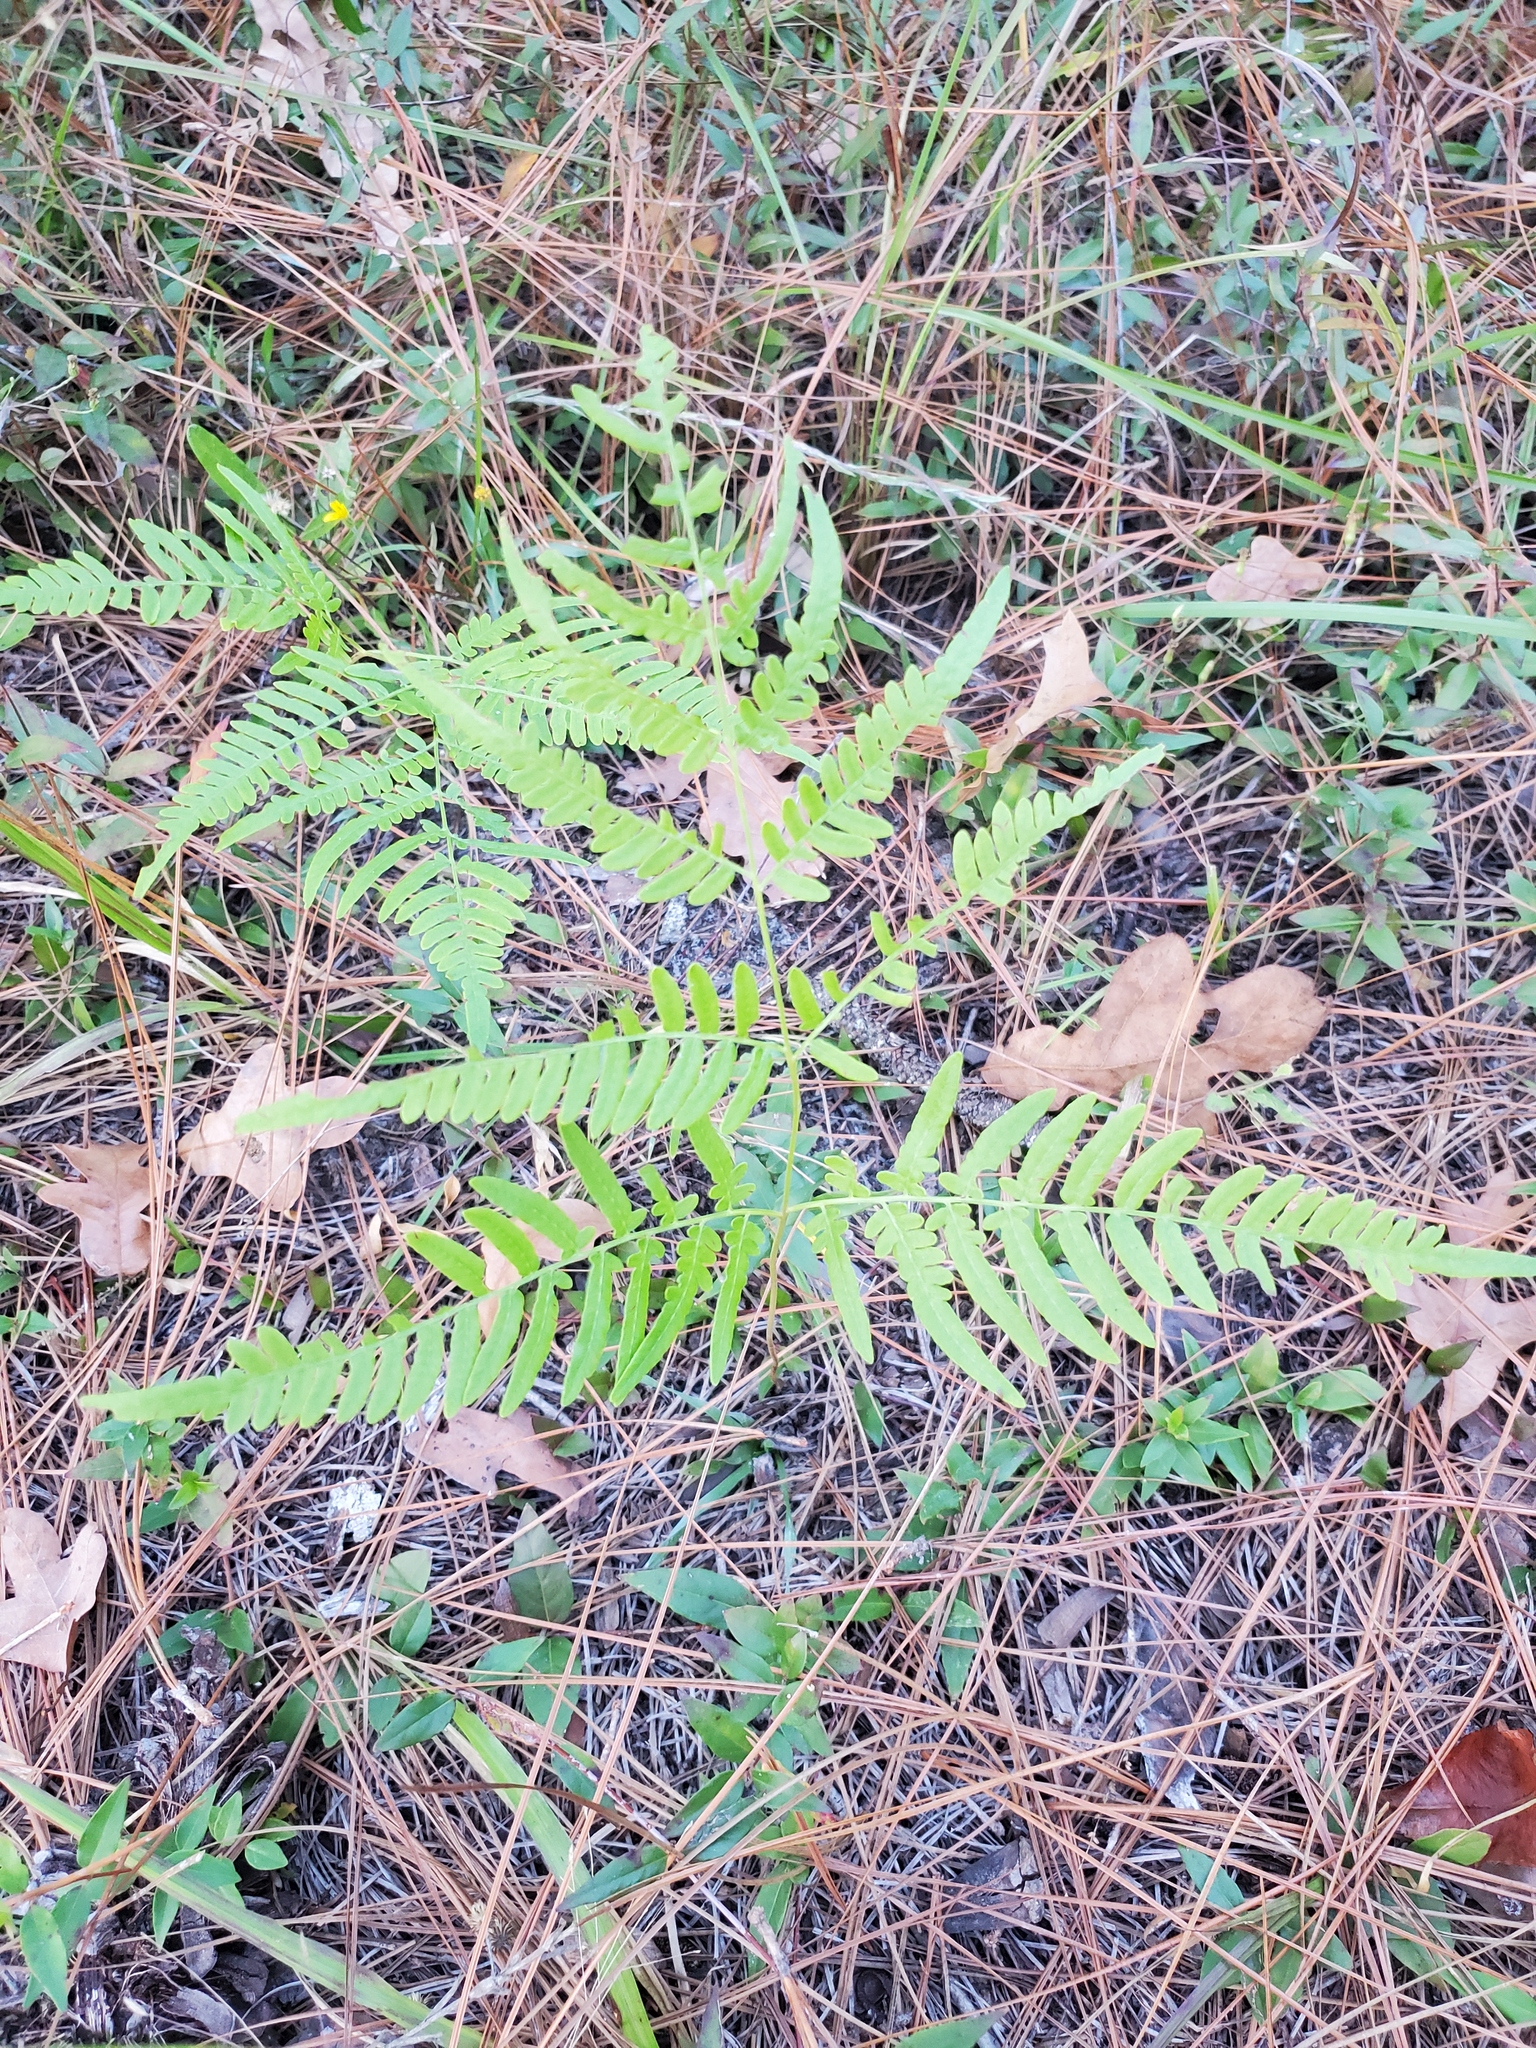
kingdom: Plantae
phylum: Tracheophyta
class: Polypodiopsida
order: Polypodiales
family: Dennstaedtiaceae
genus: Pteridium
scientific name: Pteridium aquilinum
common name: Bracken
